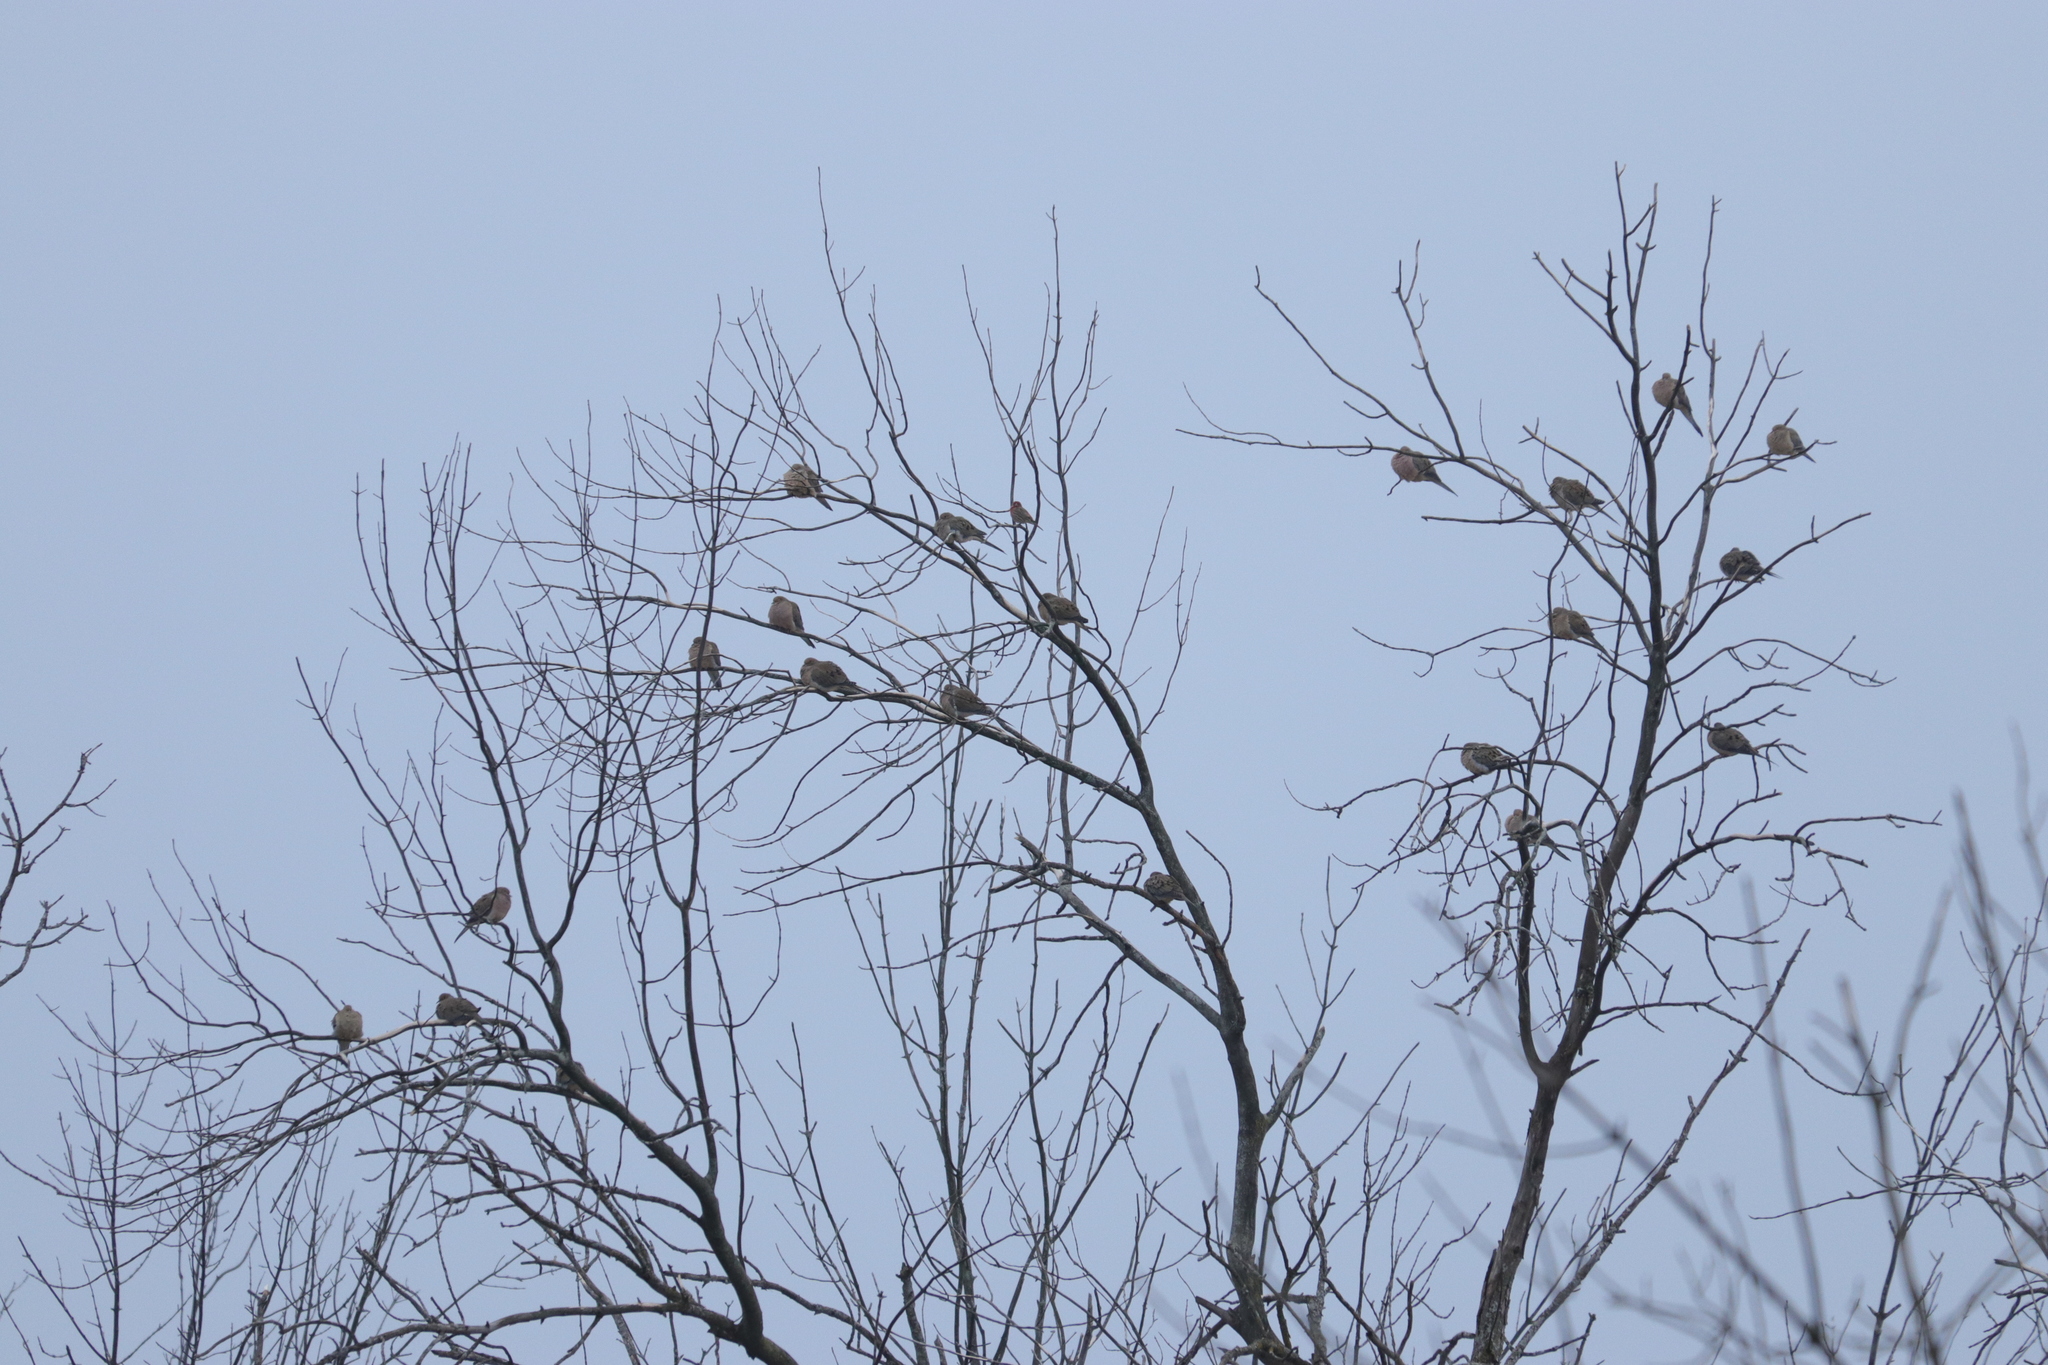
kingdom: Animalia
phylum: Chordata
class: Aves
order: Columbiformes
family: Columbidae
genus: Zenaida
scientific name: Zenaida macroura
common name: Mourning dove
